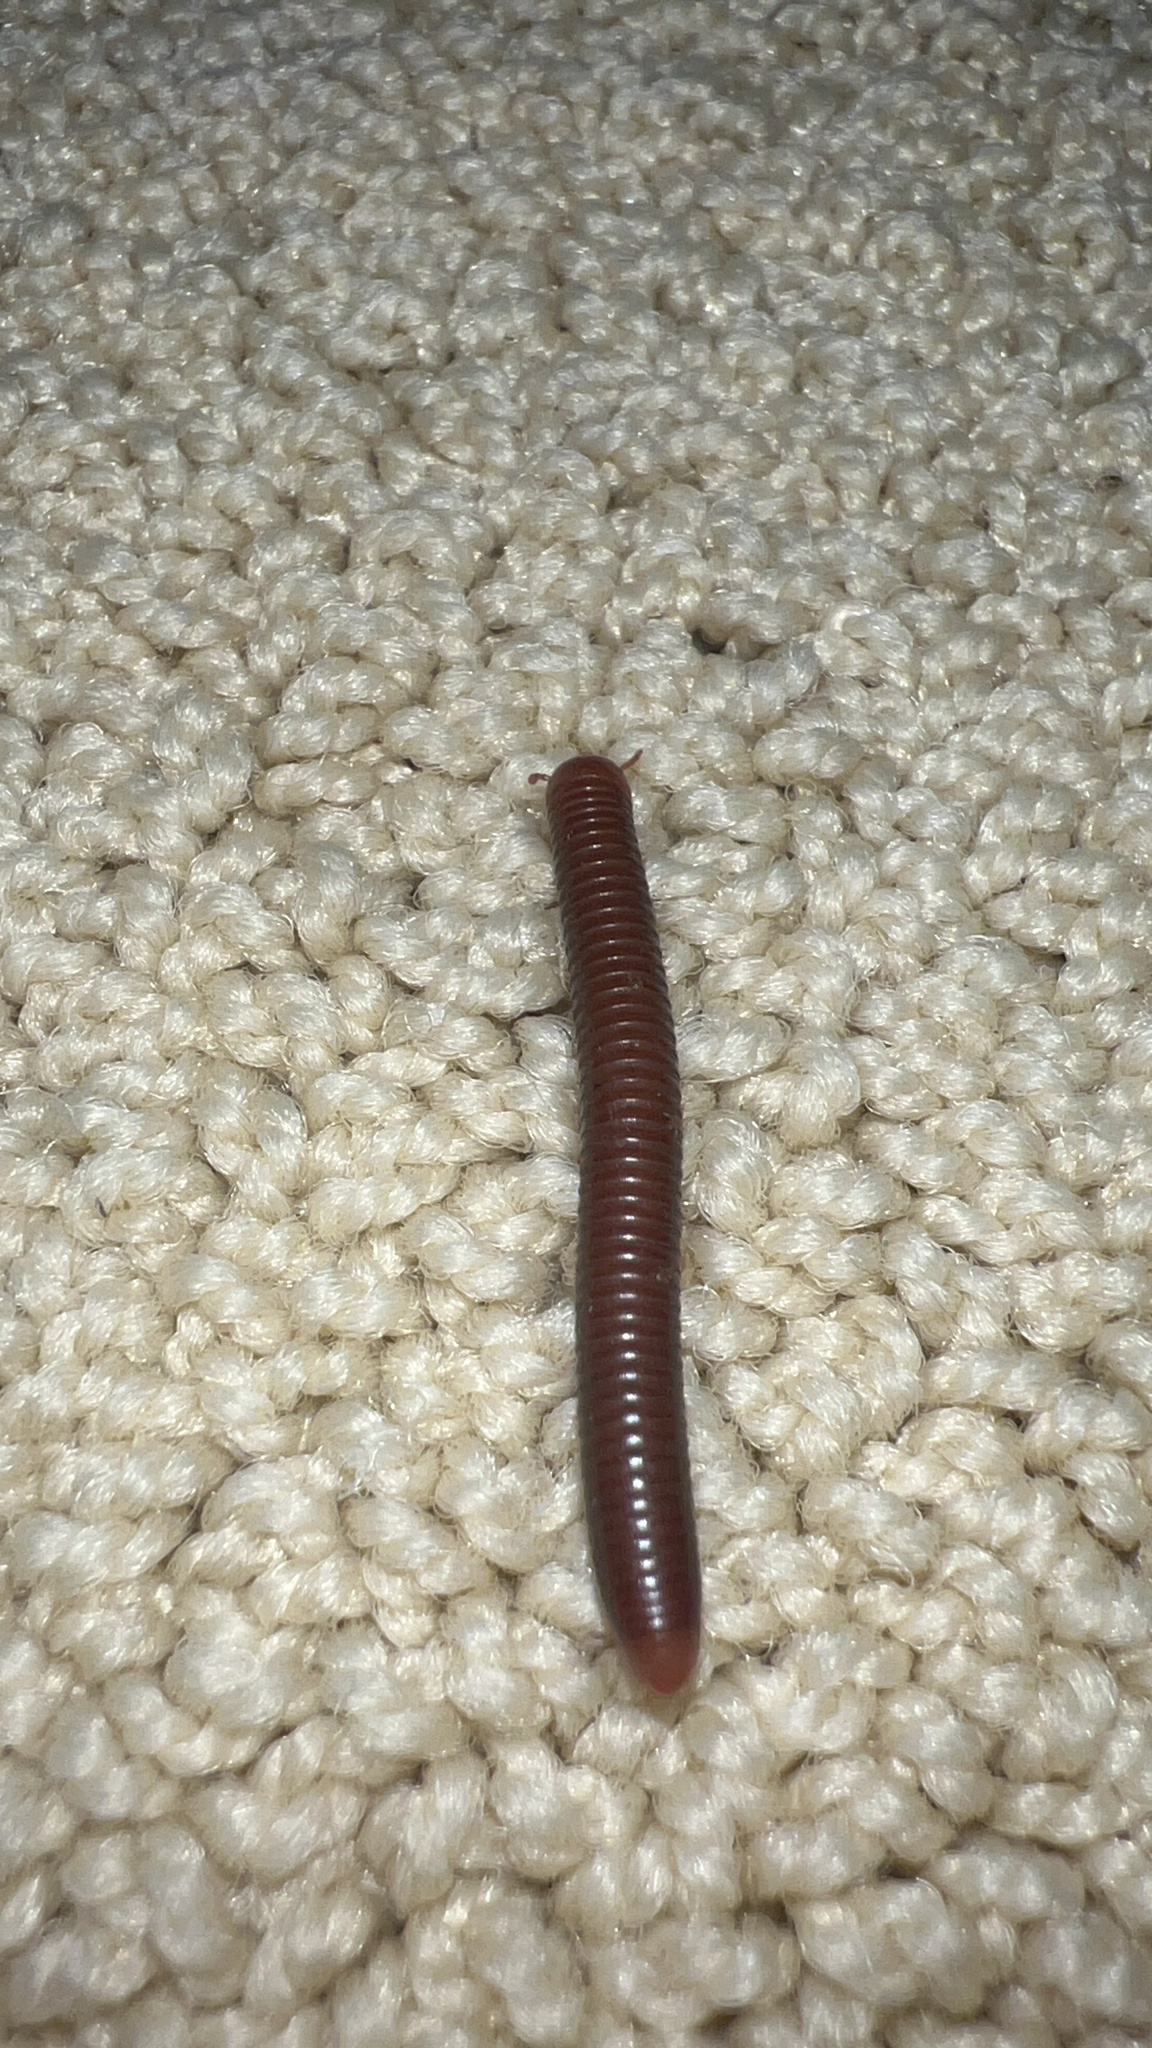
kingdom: Animalia
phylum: Arthropoda
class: Diplopoda
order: Spirobolida
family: Pachybolidae
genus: Trigoniulus
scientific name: Trigoniulus corallinus
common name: Millipede
